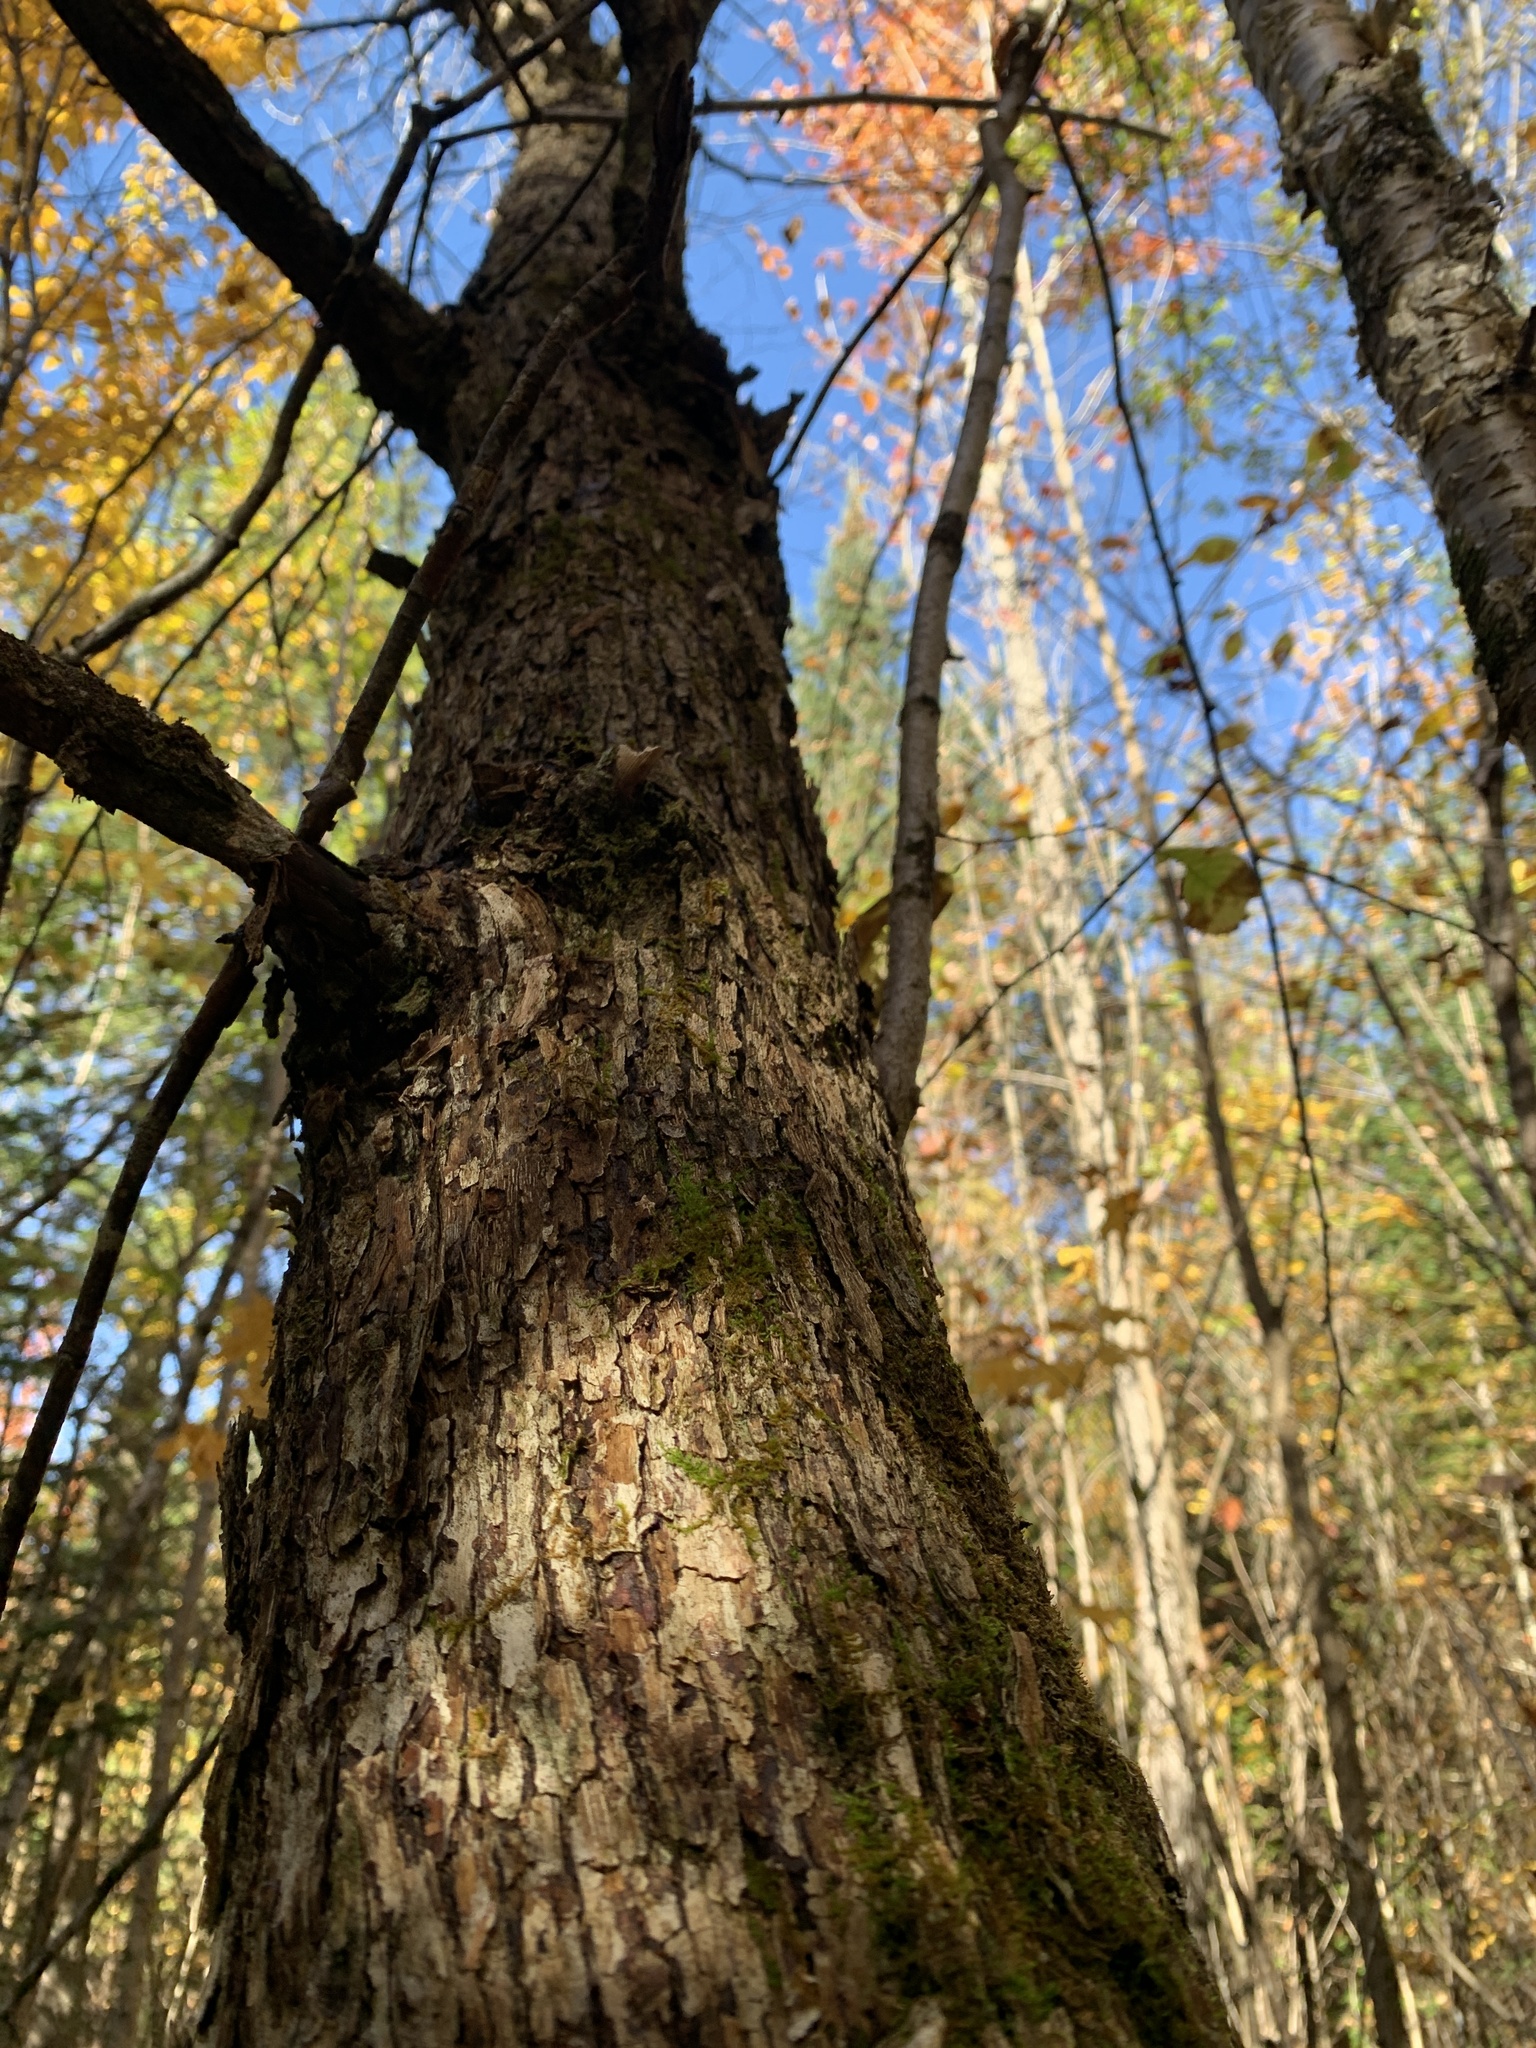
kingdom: Plantae
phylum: Tracheophyta
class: Magnoliopsida
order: Fagales
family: Betulaceae
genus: Ostrya
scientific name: Ostrya virginiana
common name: Ironwood
